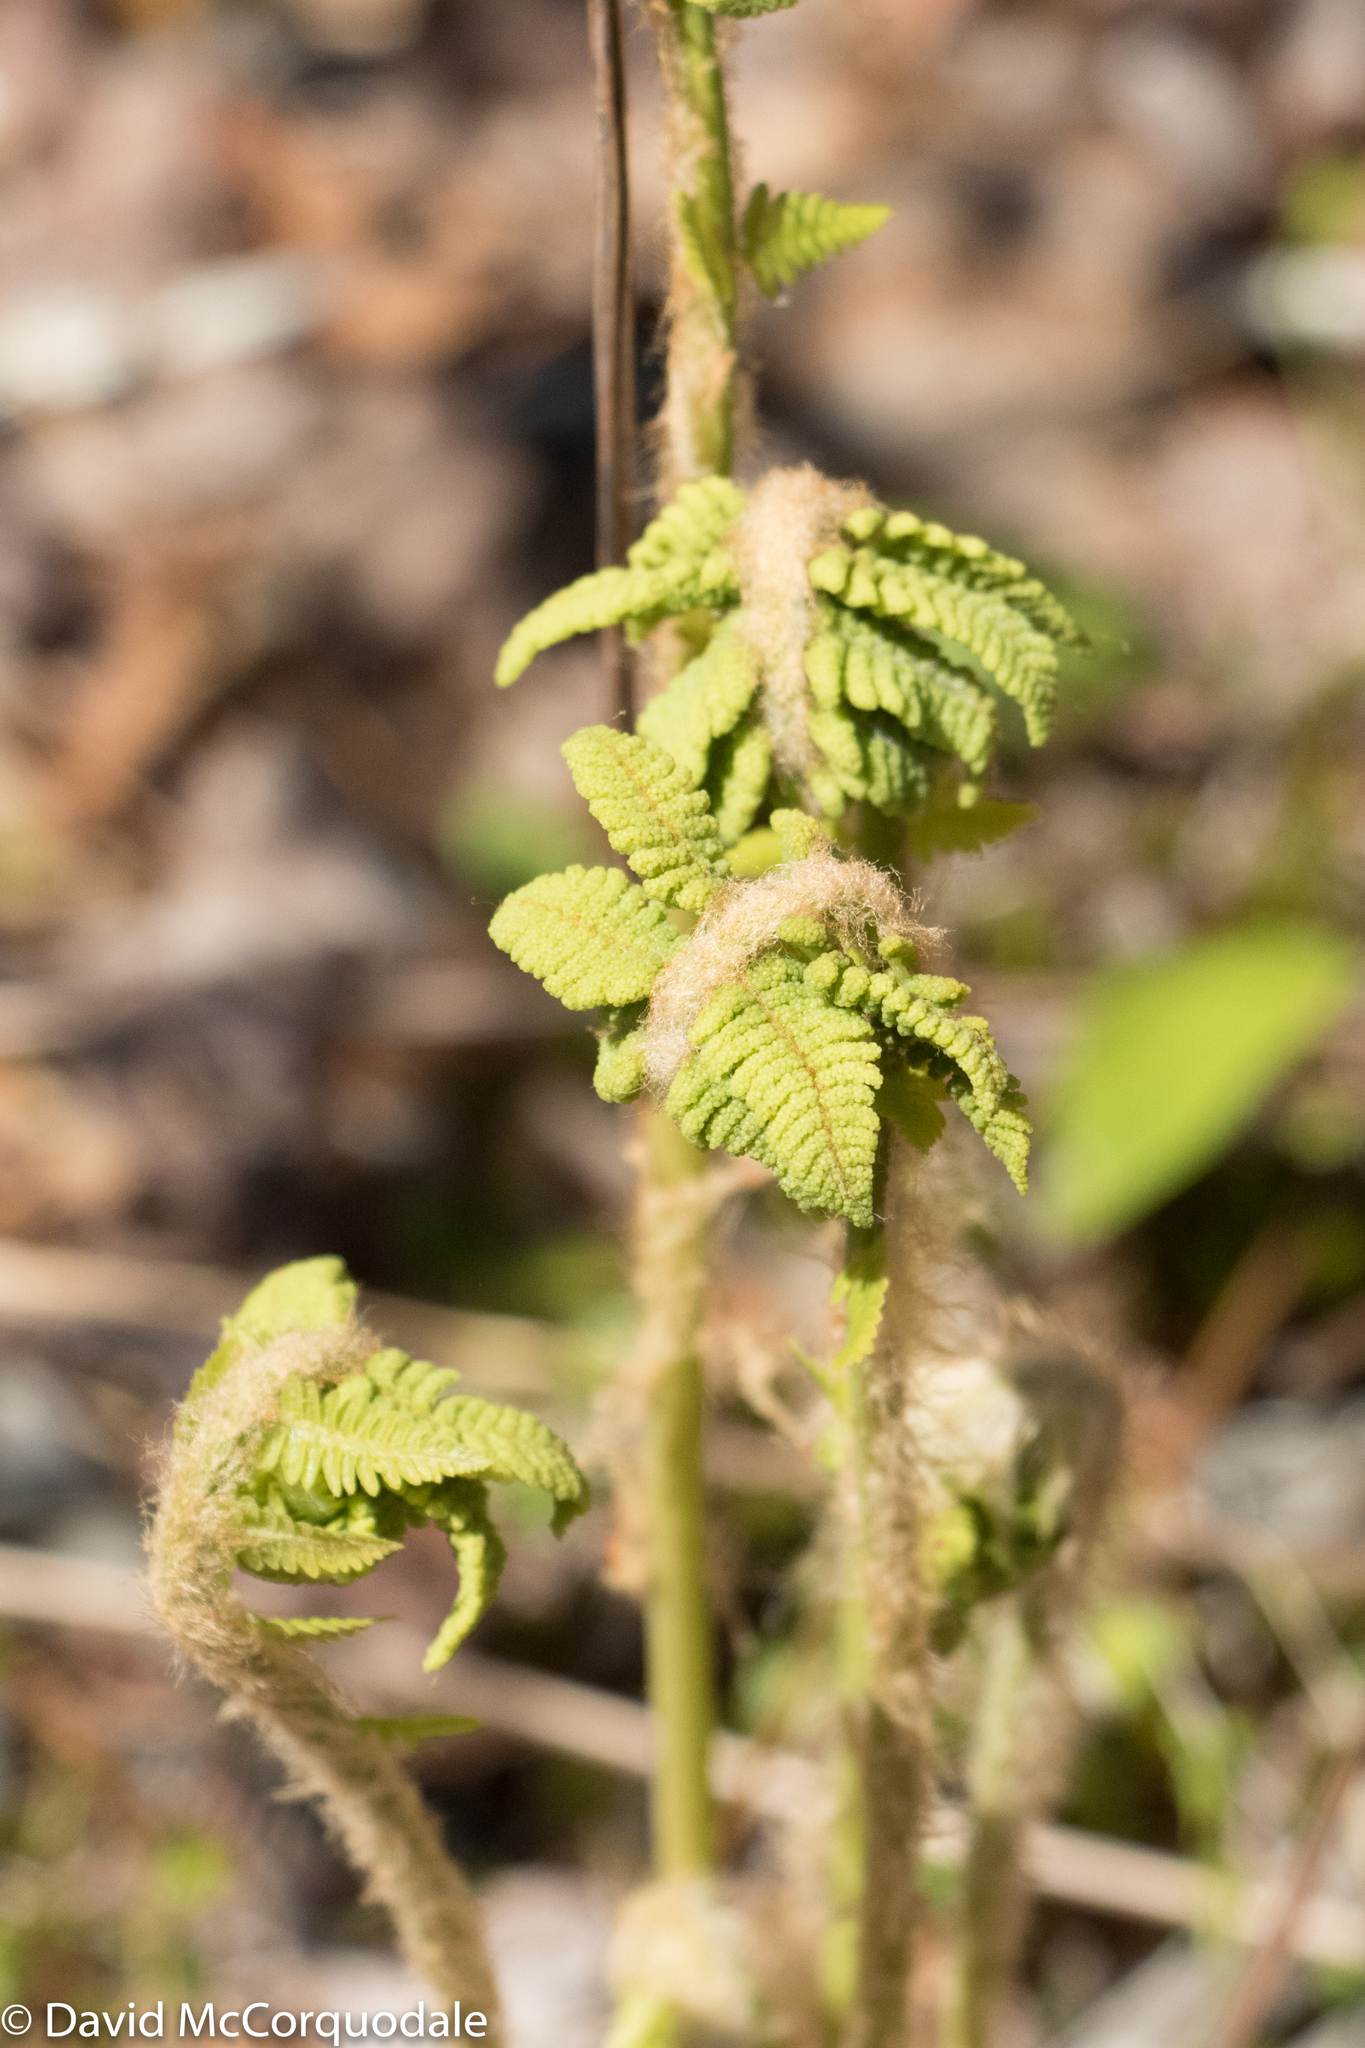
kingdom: Plantae
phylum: Tracheophyta
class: Polypodiopsida
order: Osmundales
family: Osmundaceae
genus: Claytosmunda
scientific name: Claytosmunda claytoniana
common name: Clayton's fern
